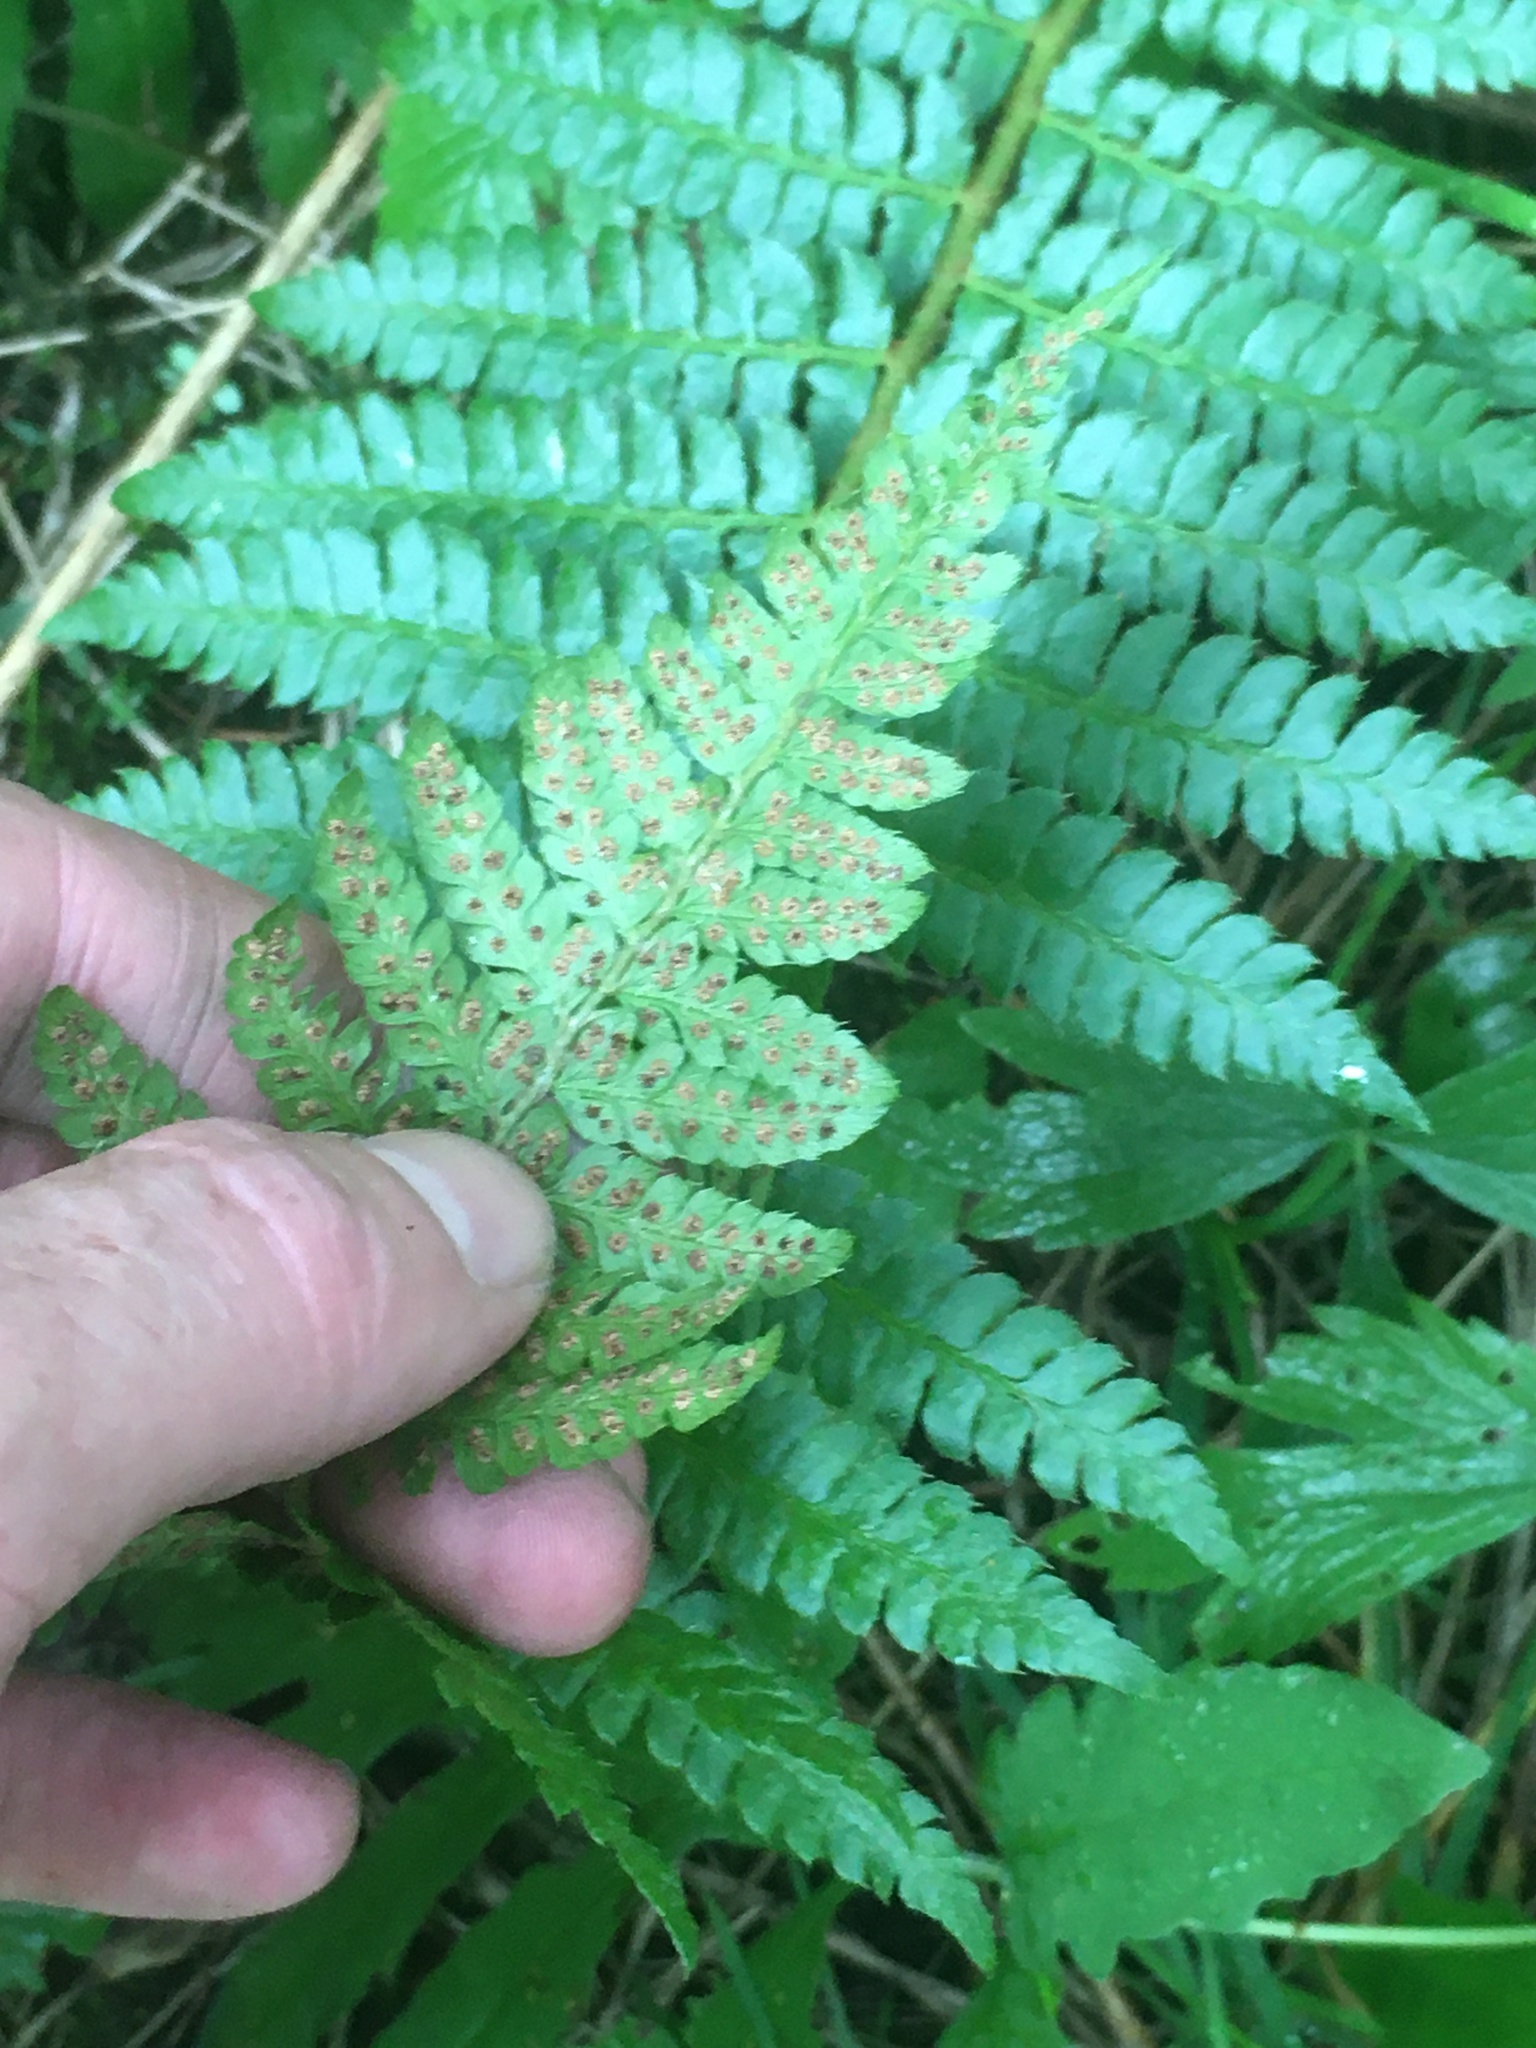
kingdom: Plantae
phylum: Tracheophyta
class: Polypodiopsida
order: Polypodiales
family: Dryopteridaceae
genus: Polystichum
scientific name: Polystichum braunii
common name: Braun's holly fern
